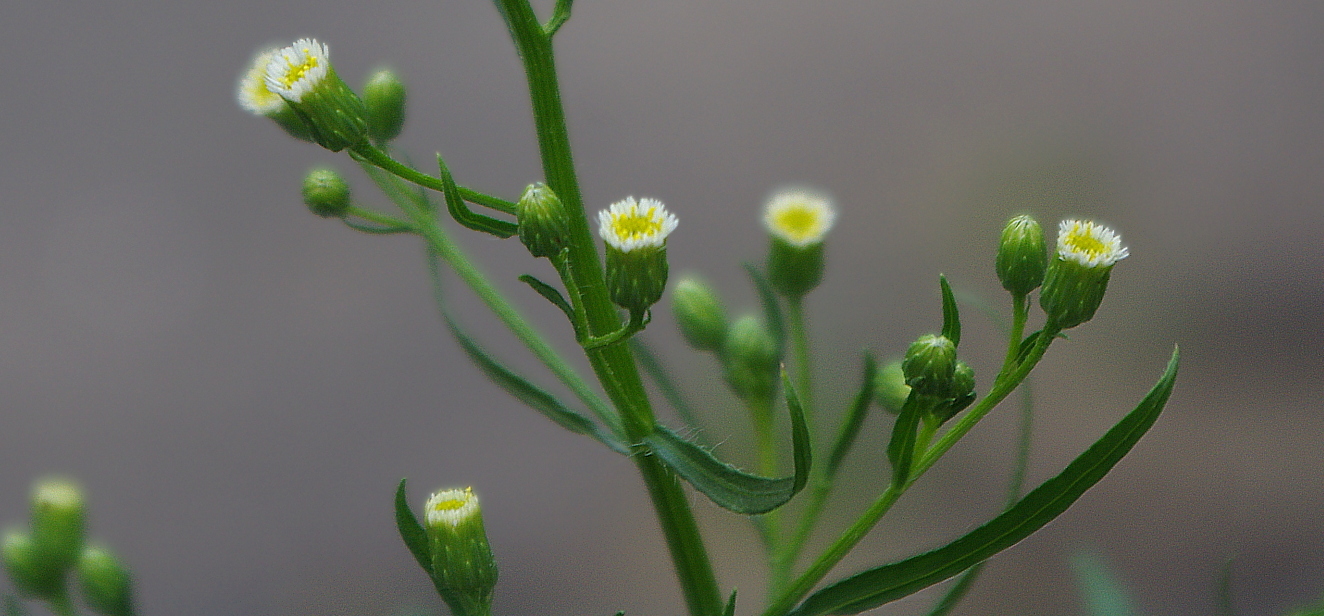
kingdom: Plantae
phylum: Tracheophyta
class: Magnoliopsida
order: Asterales
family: Asteraceae
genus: Erigeron
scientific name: Erigeron canadensis
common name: Canadian fleabane
